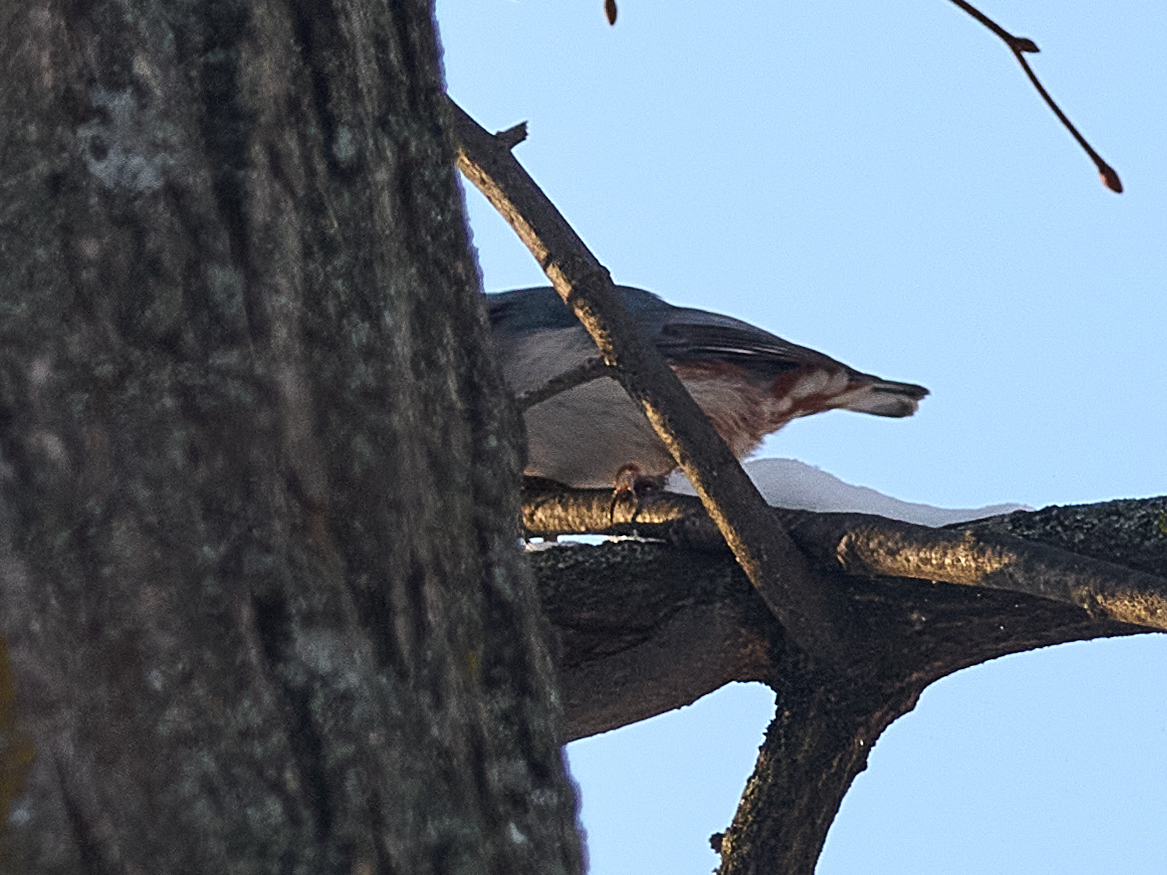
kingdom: Animalia
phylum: Chordata
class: Aves
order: Passeriformes
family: Sittidae
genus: Sitta
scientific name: Sitta europaea
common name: Eurasian nuthatch
